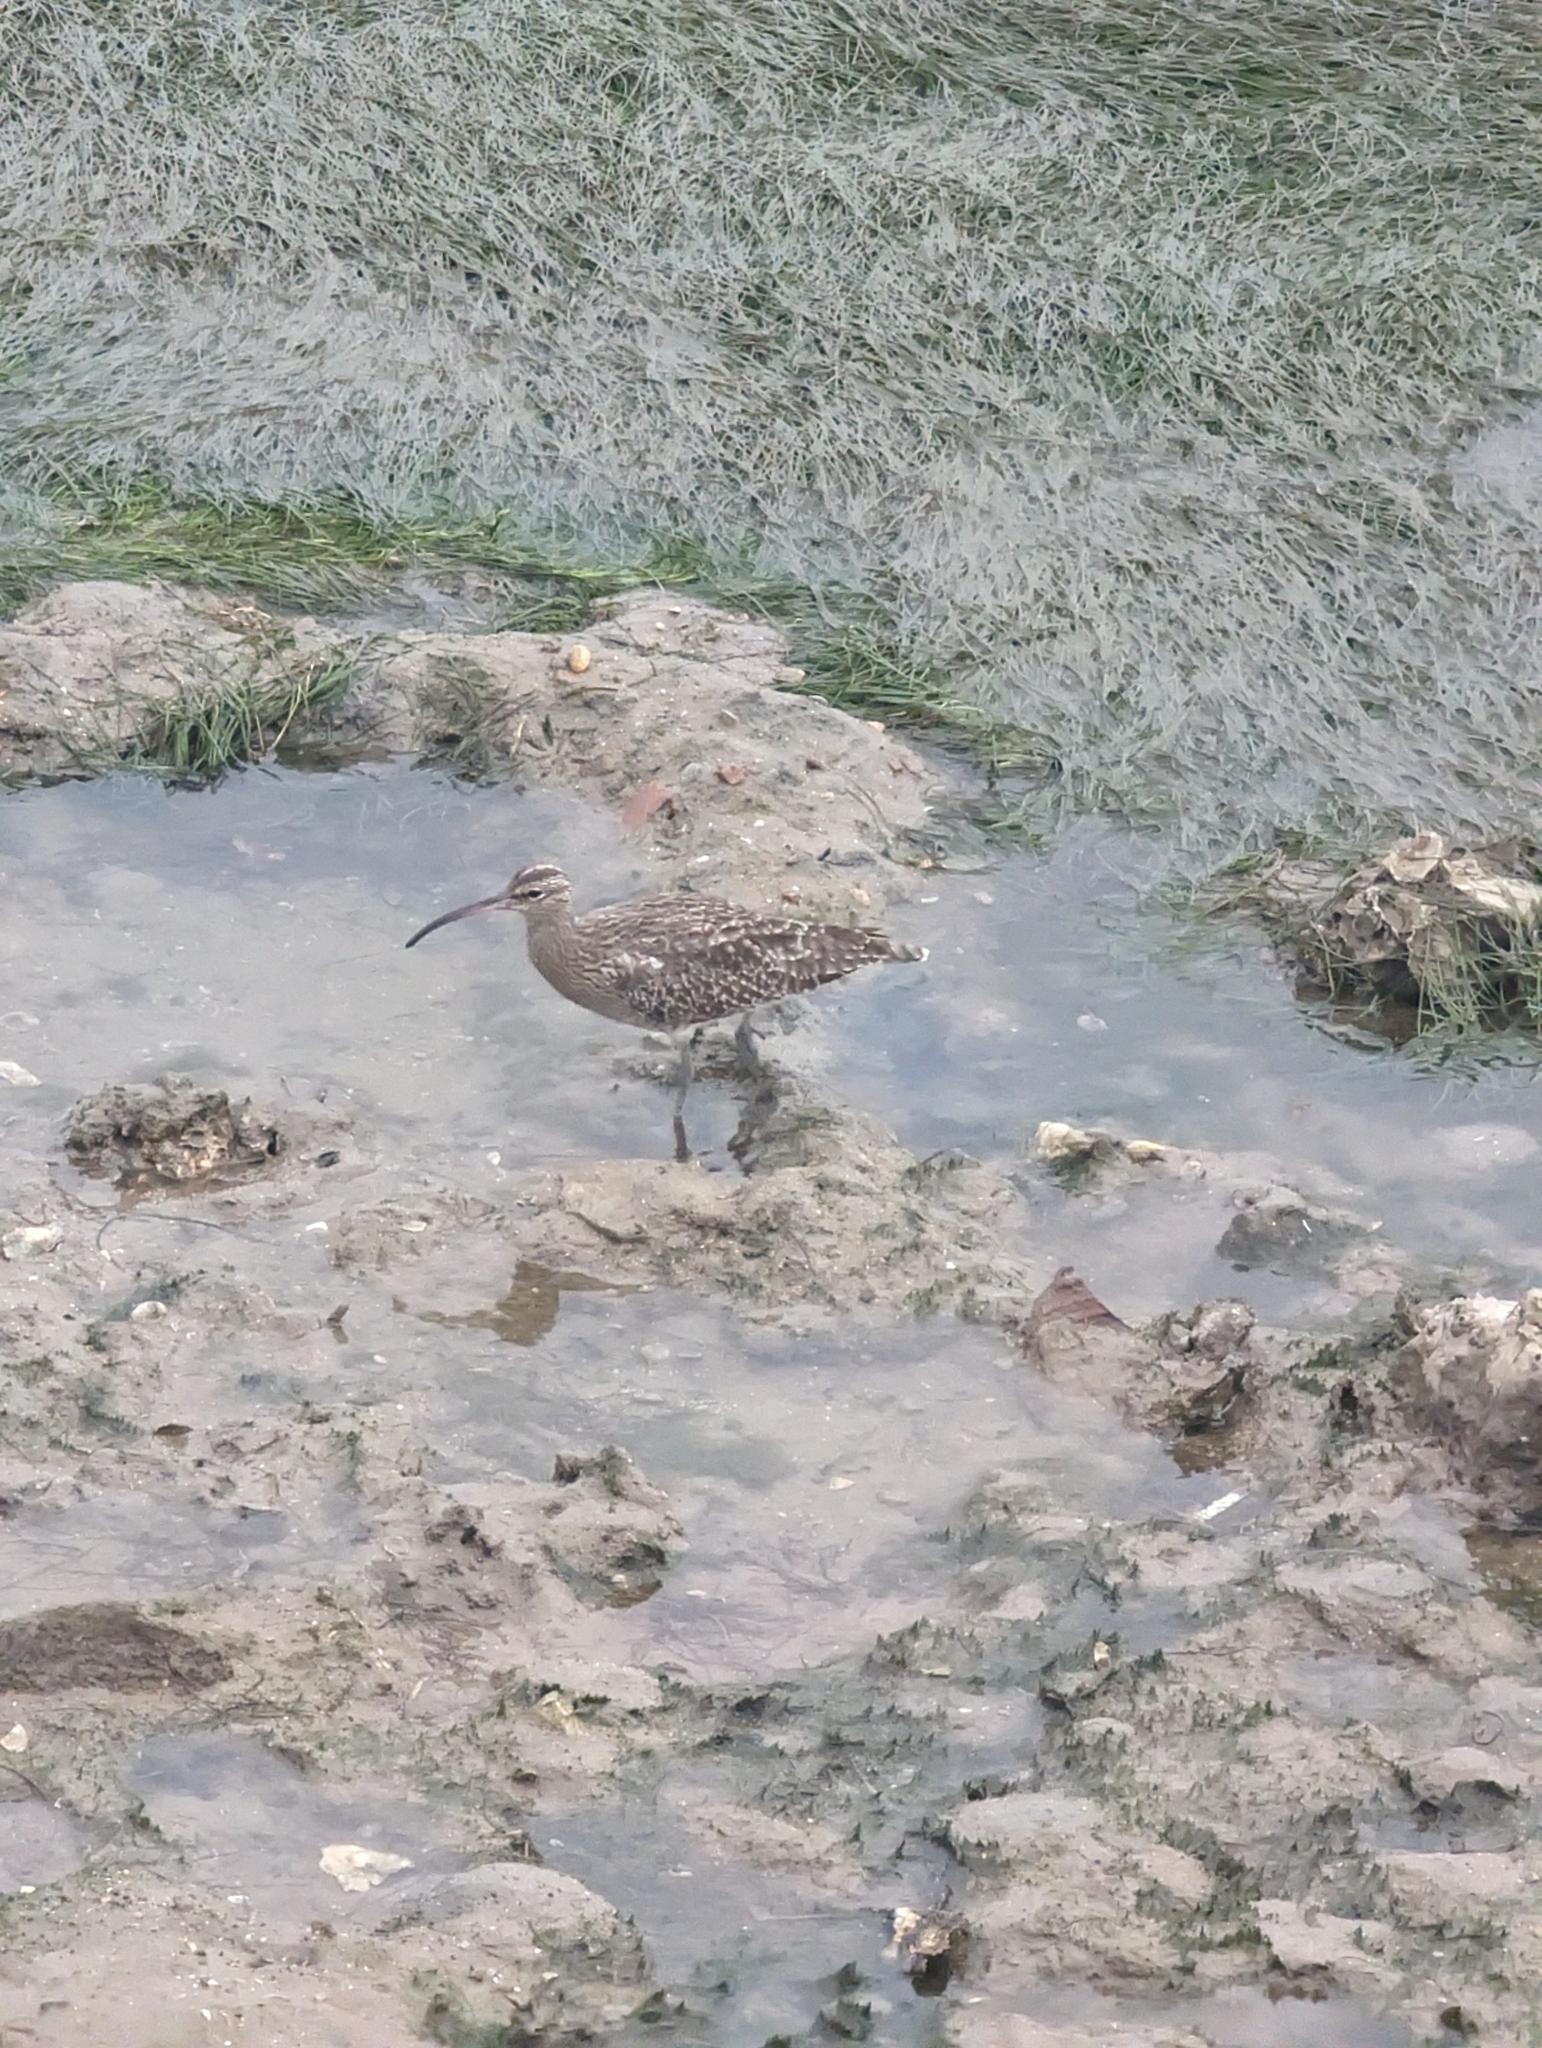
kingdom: Animalia
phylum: Chordata
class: Aves
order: Charadriiformes
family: Scolopacidae
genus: Numenius
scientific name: Numenius phaeopus
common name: Whimbrel
